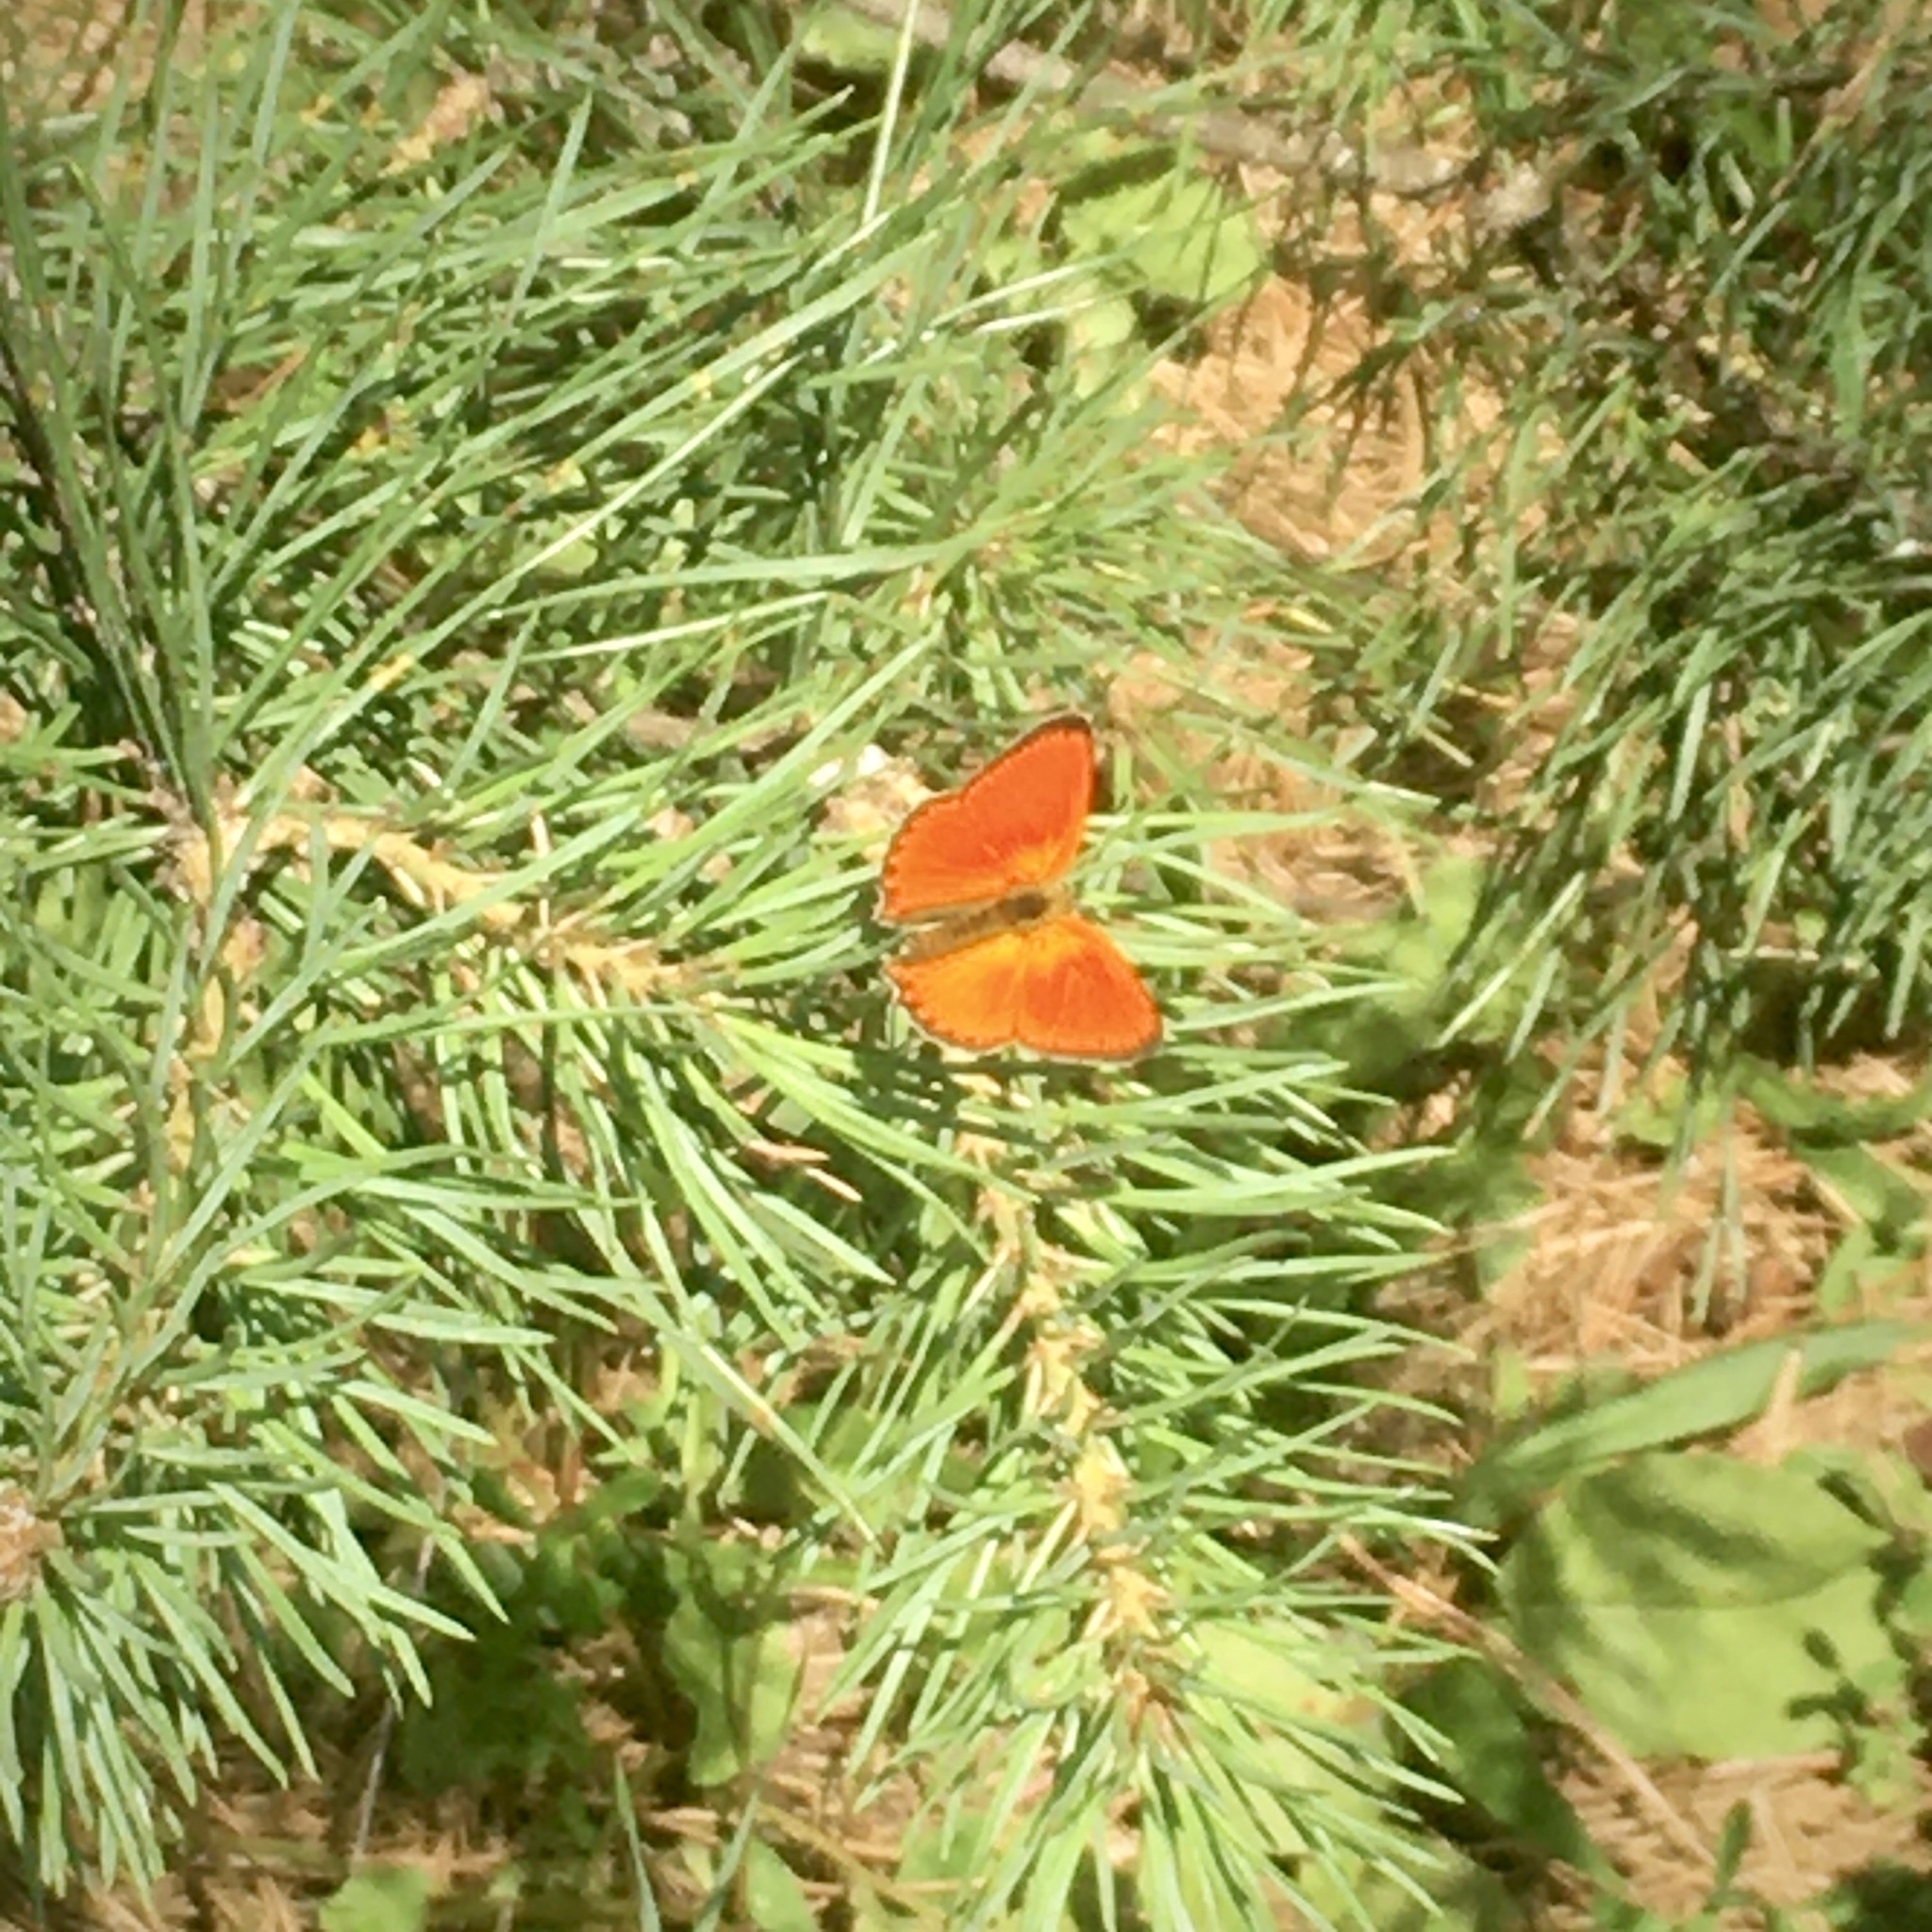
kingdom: Animalia
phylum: Arthropoda
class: Insecta
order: Lepidoptera
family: Lycaenidae
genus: Lycaena
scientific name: Lycaena virgaureae
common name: Scarce copper
